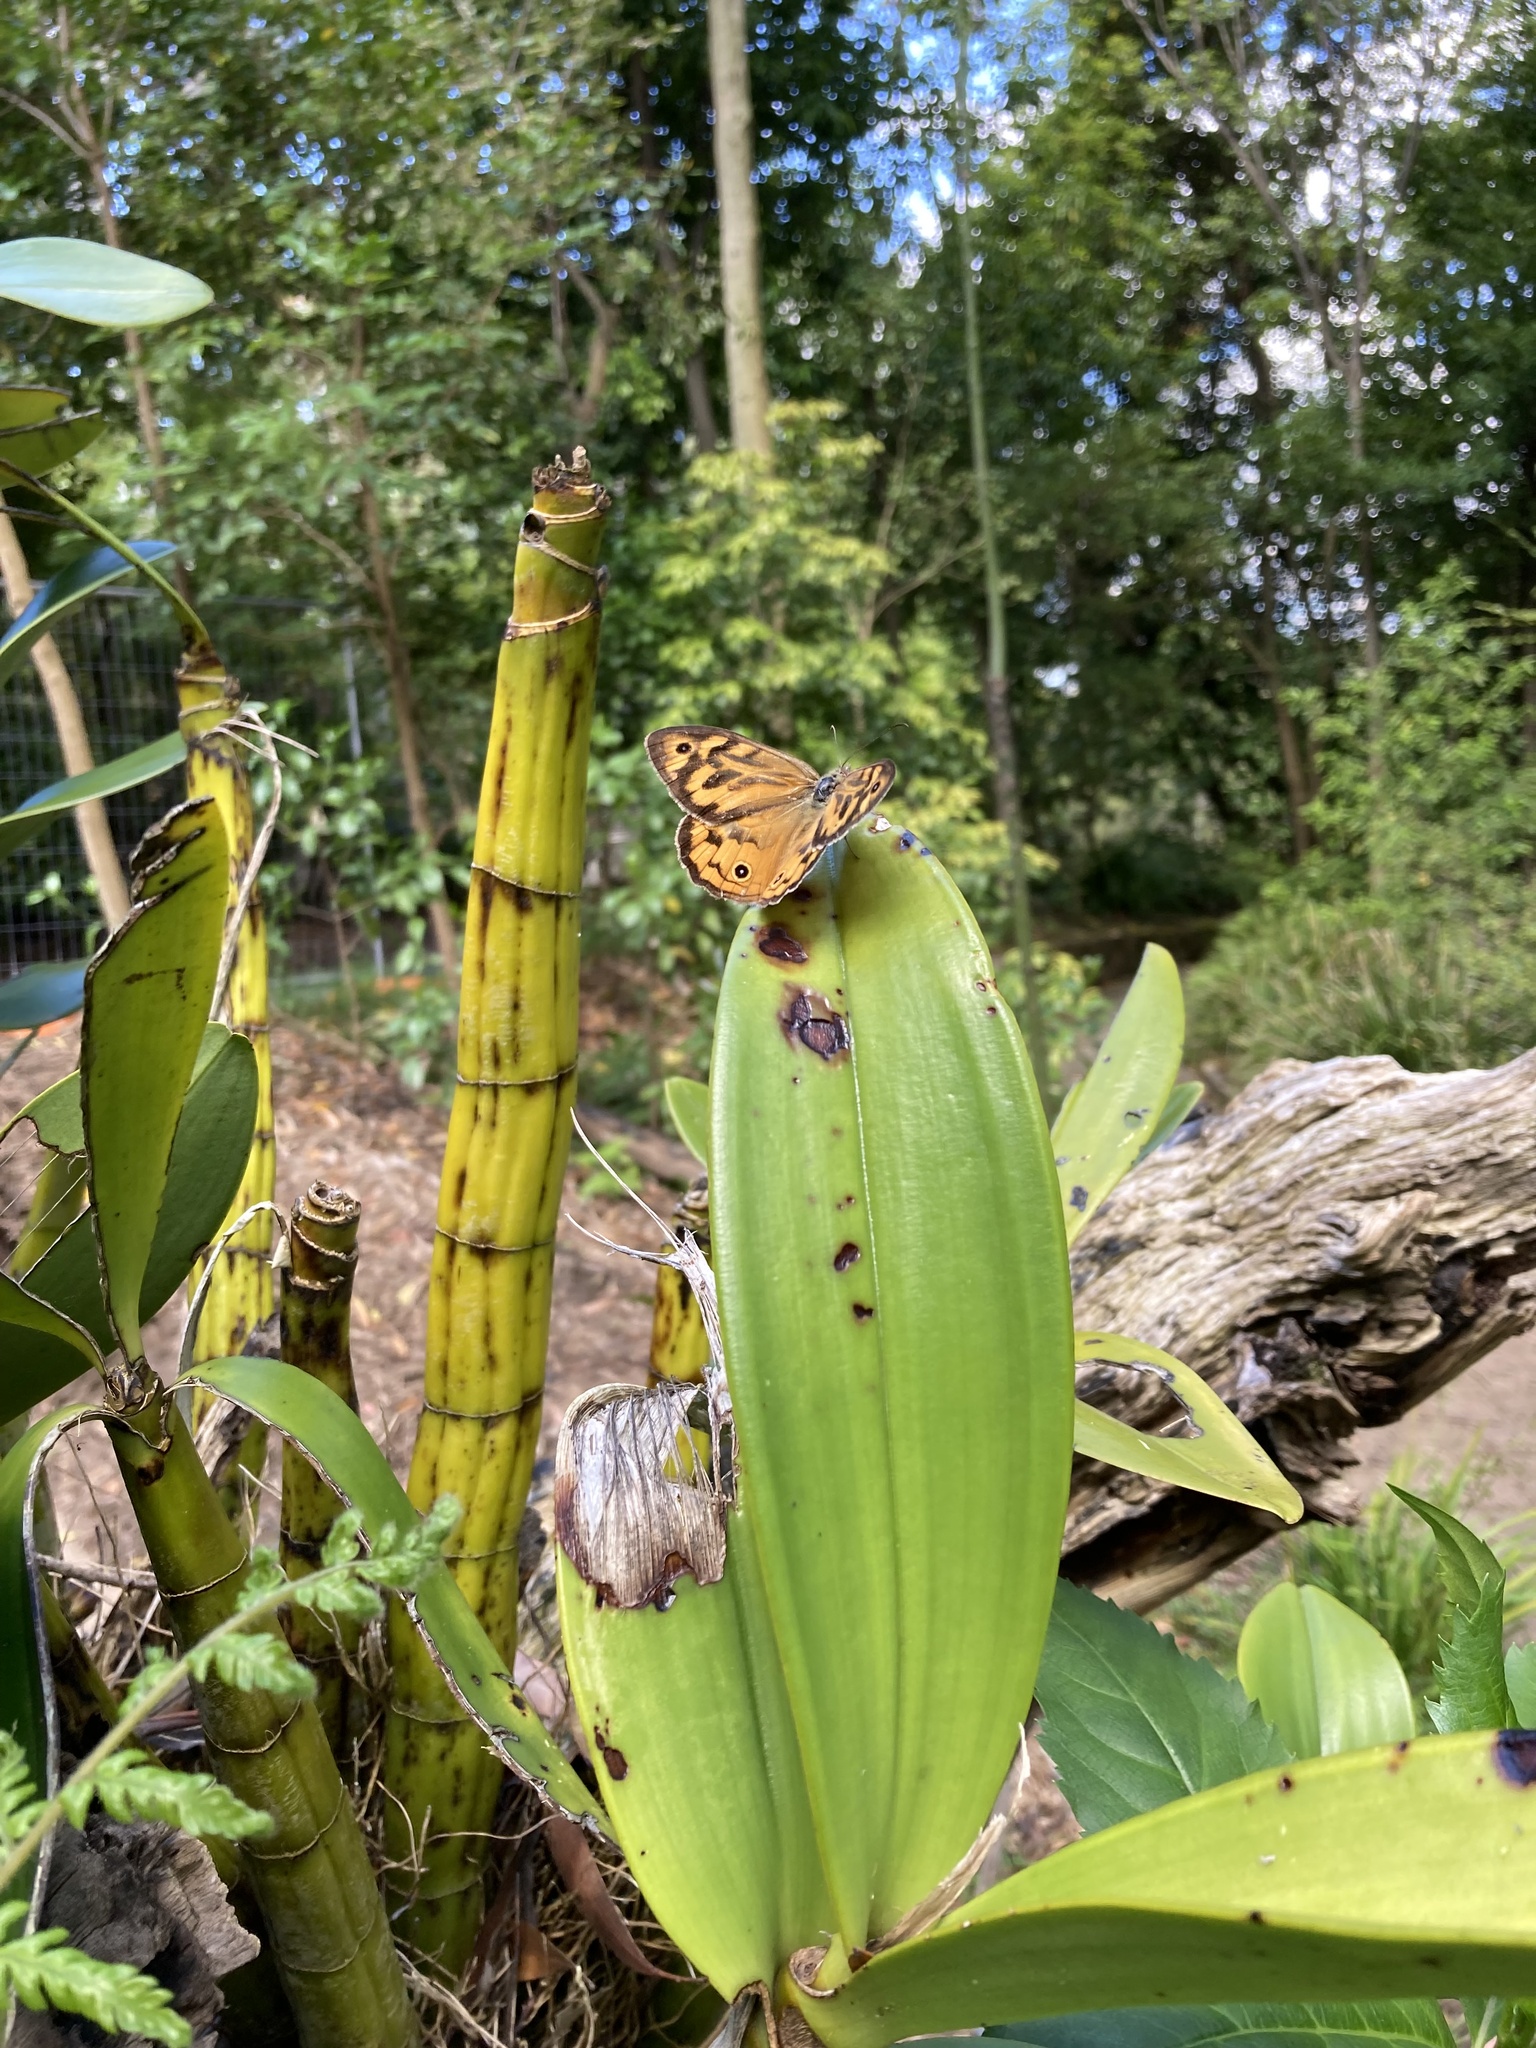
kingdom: Animalia
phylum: Arthropoda
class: Insecta
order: Lepidoptera
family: Nymphalidae
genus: Heteronympha
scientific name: Heteronympha merope
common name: Common brown
